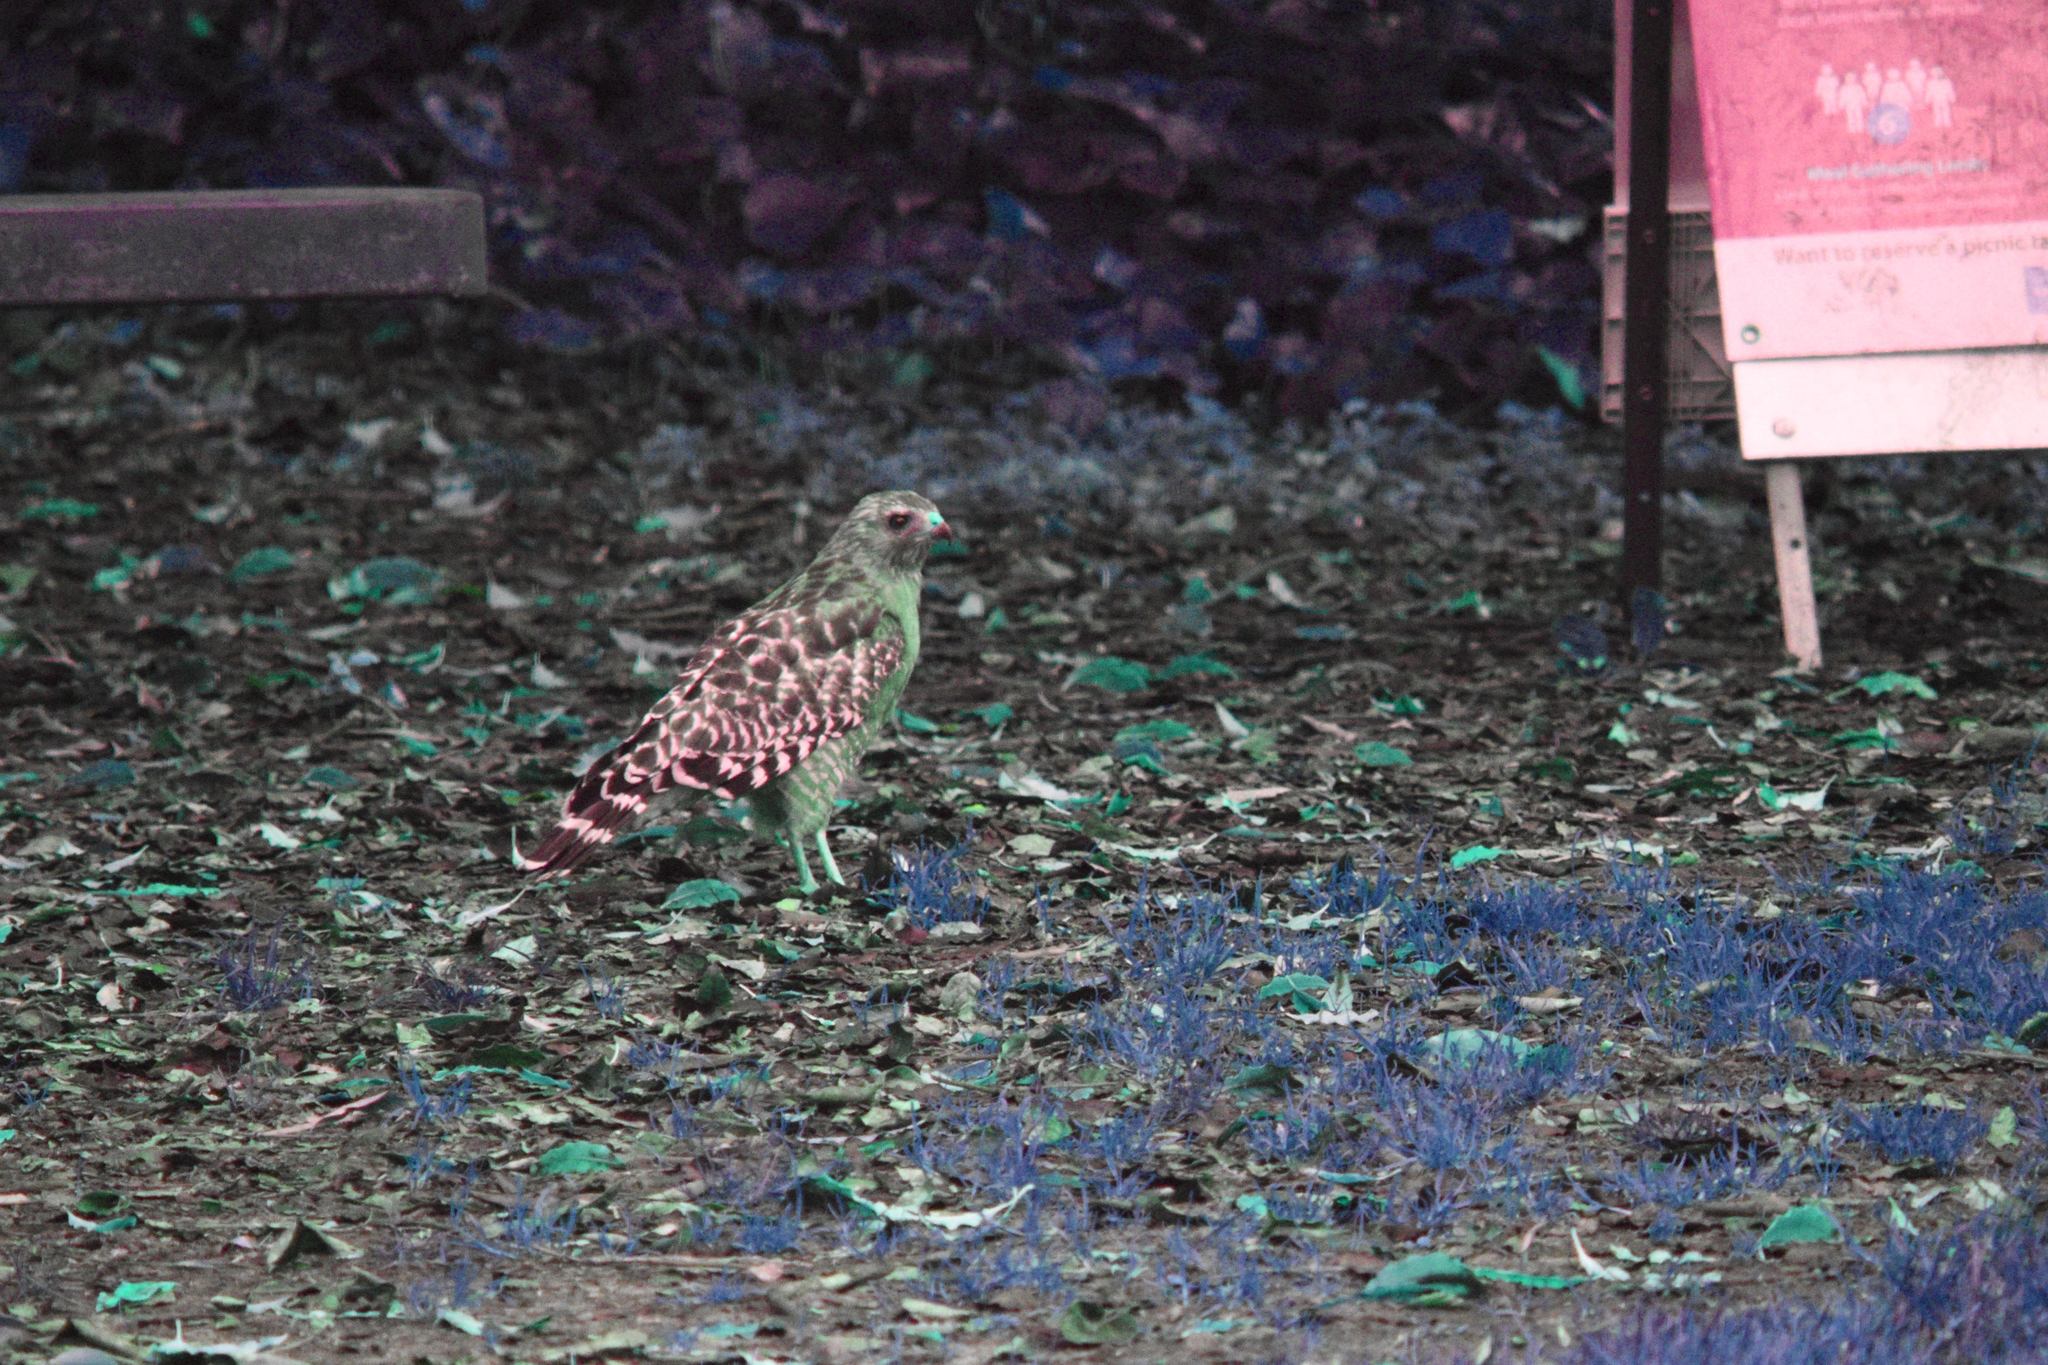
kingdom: Animalia
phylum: Chordata
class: Aves
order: Accipitriformes
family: Accipitridae
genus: Buteo
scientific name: Buteo lineatus
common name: Red-shouldered hawk
